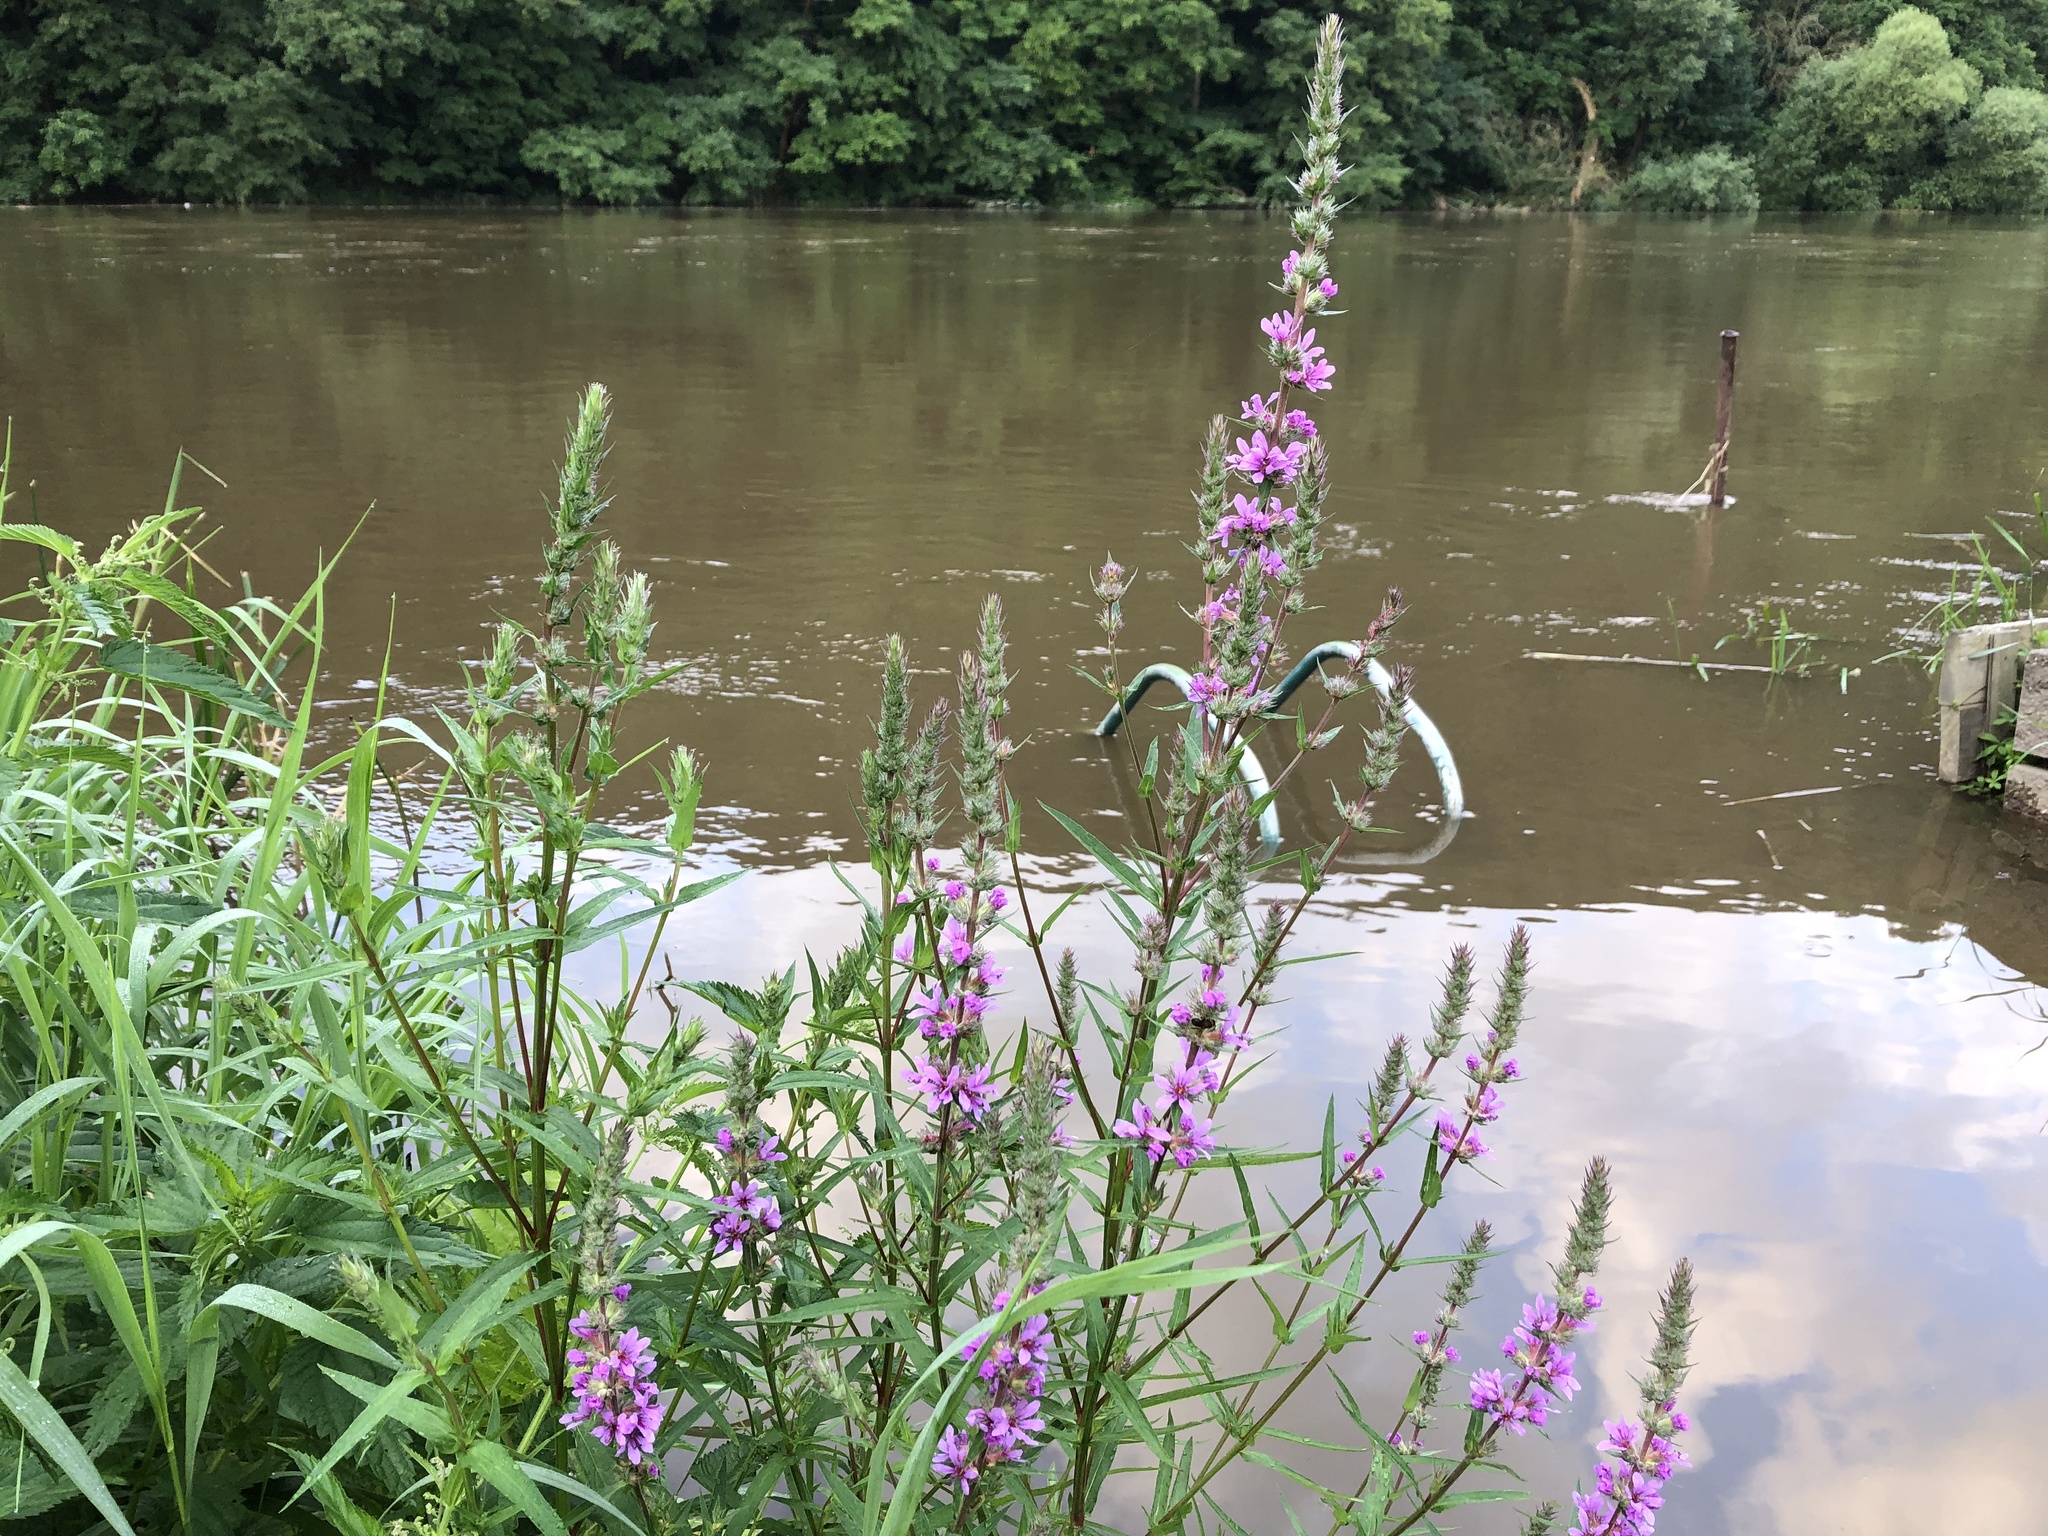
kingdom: Plantae
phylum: Tracheophyta
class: Magnoliopsida
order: Myrtales
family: Lythraceae
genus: Lythrum
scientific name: Lythrum salicaria
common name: Purple loosestrife
